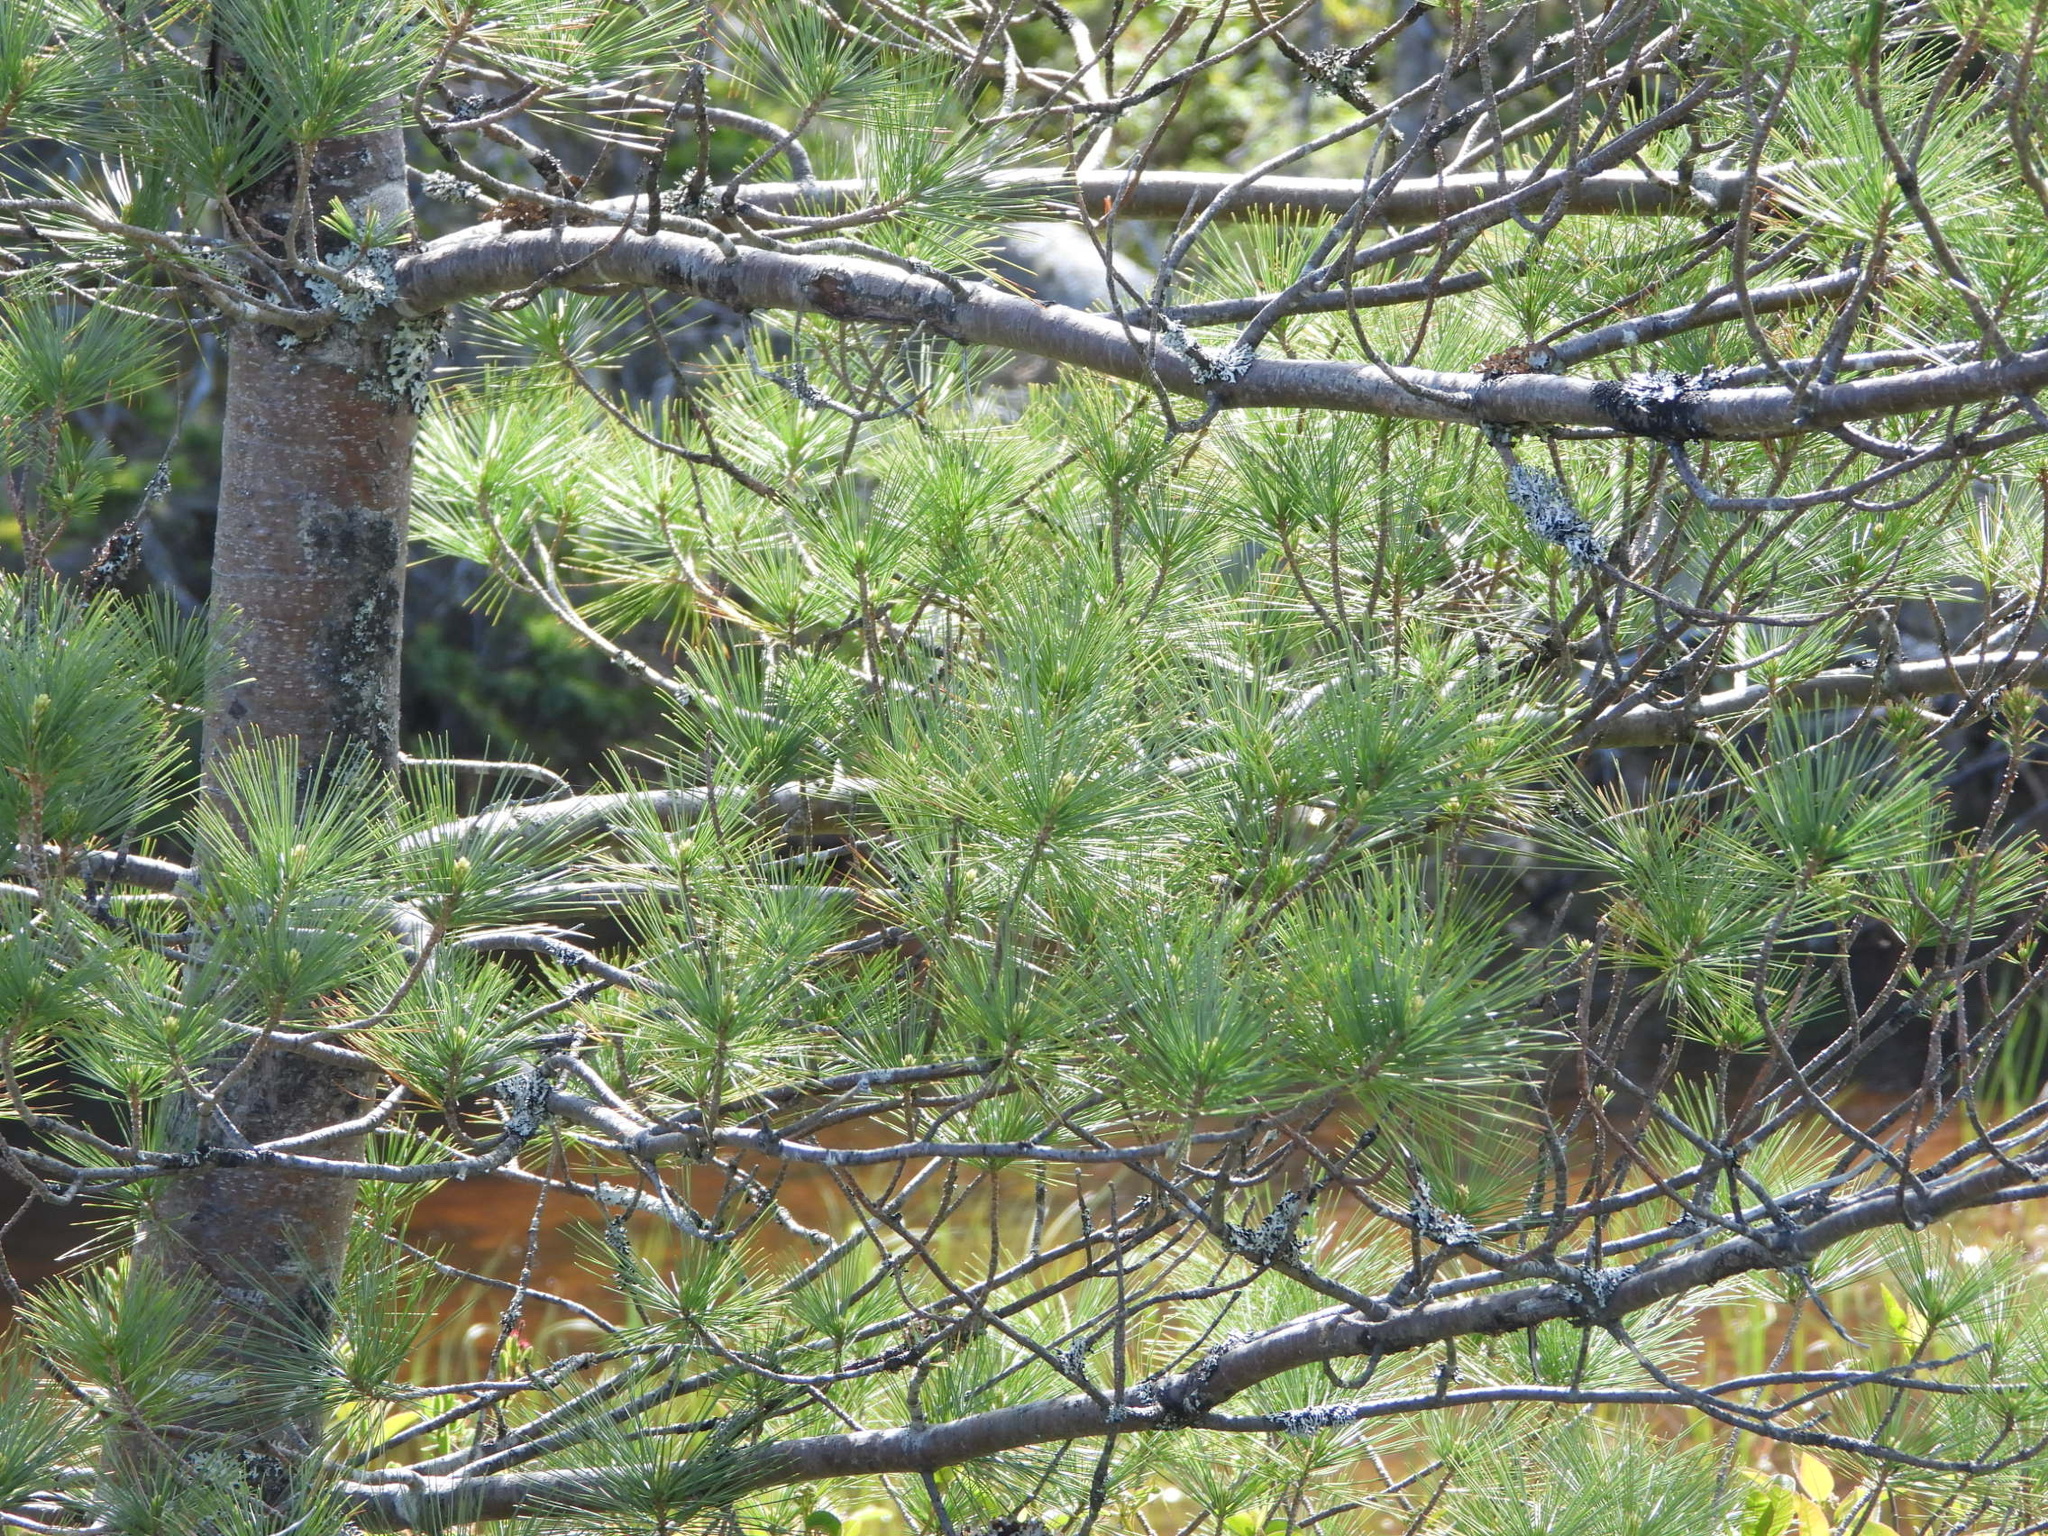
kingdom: Plantae
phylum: Tracheophyta
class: Pinopsida
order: Pinales
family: Pinaceae
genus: Pinus
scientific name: Pinus strobus
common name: Weymouth pine
